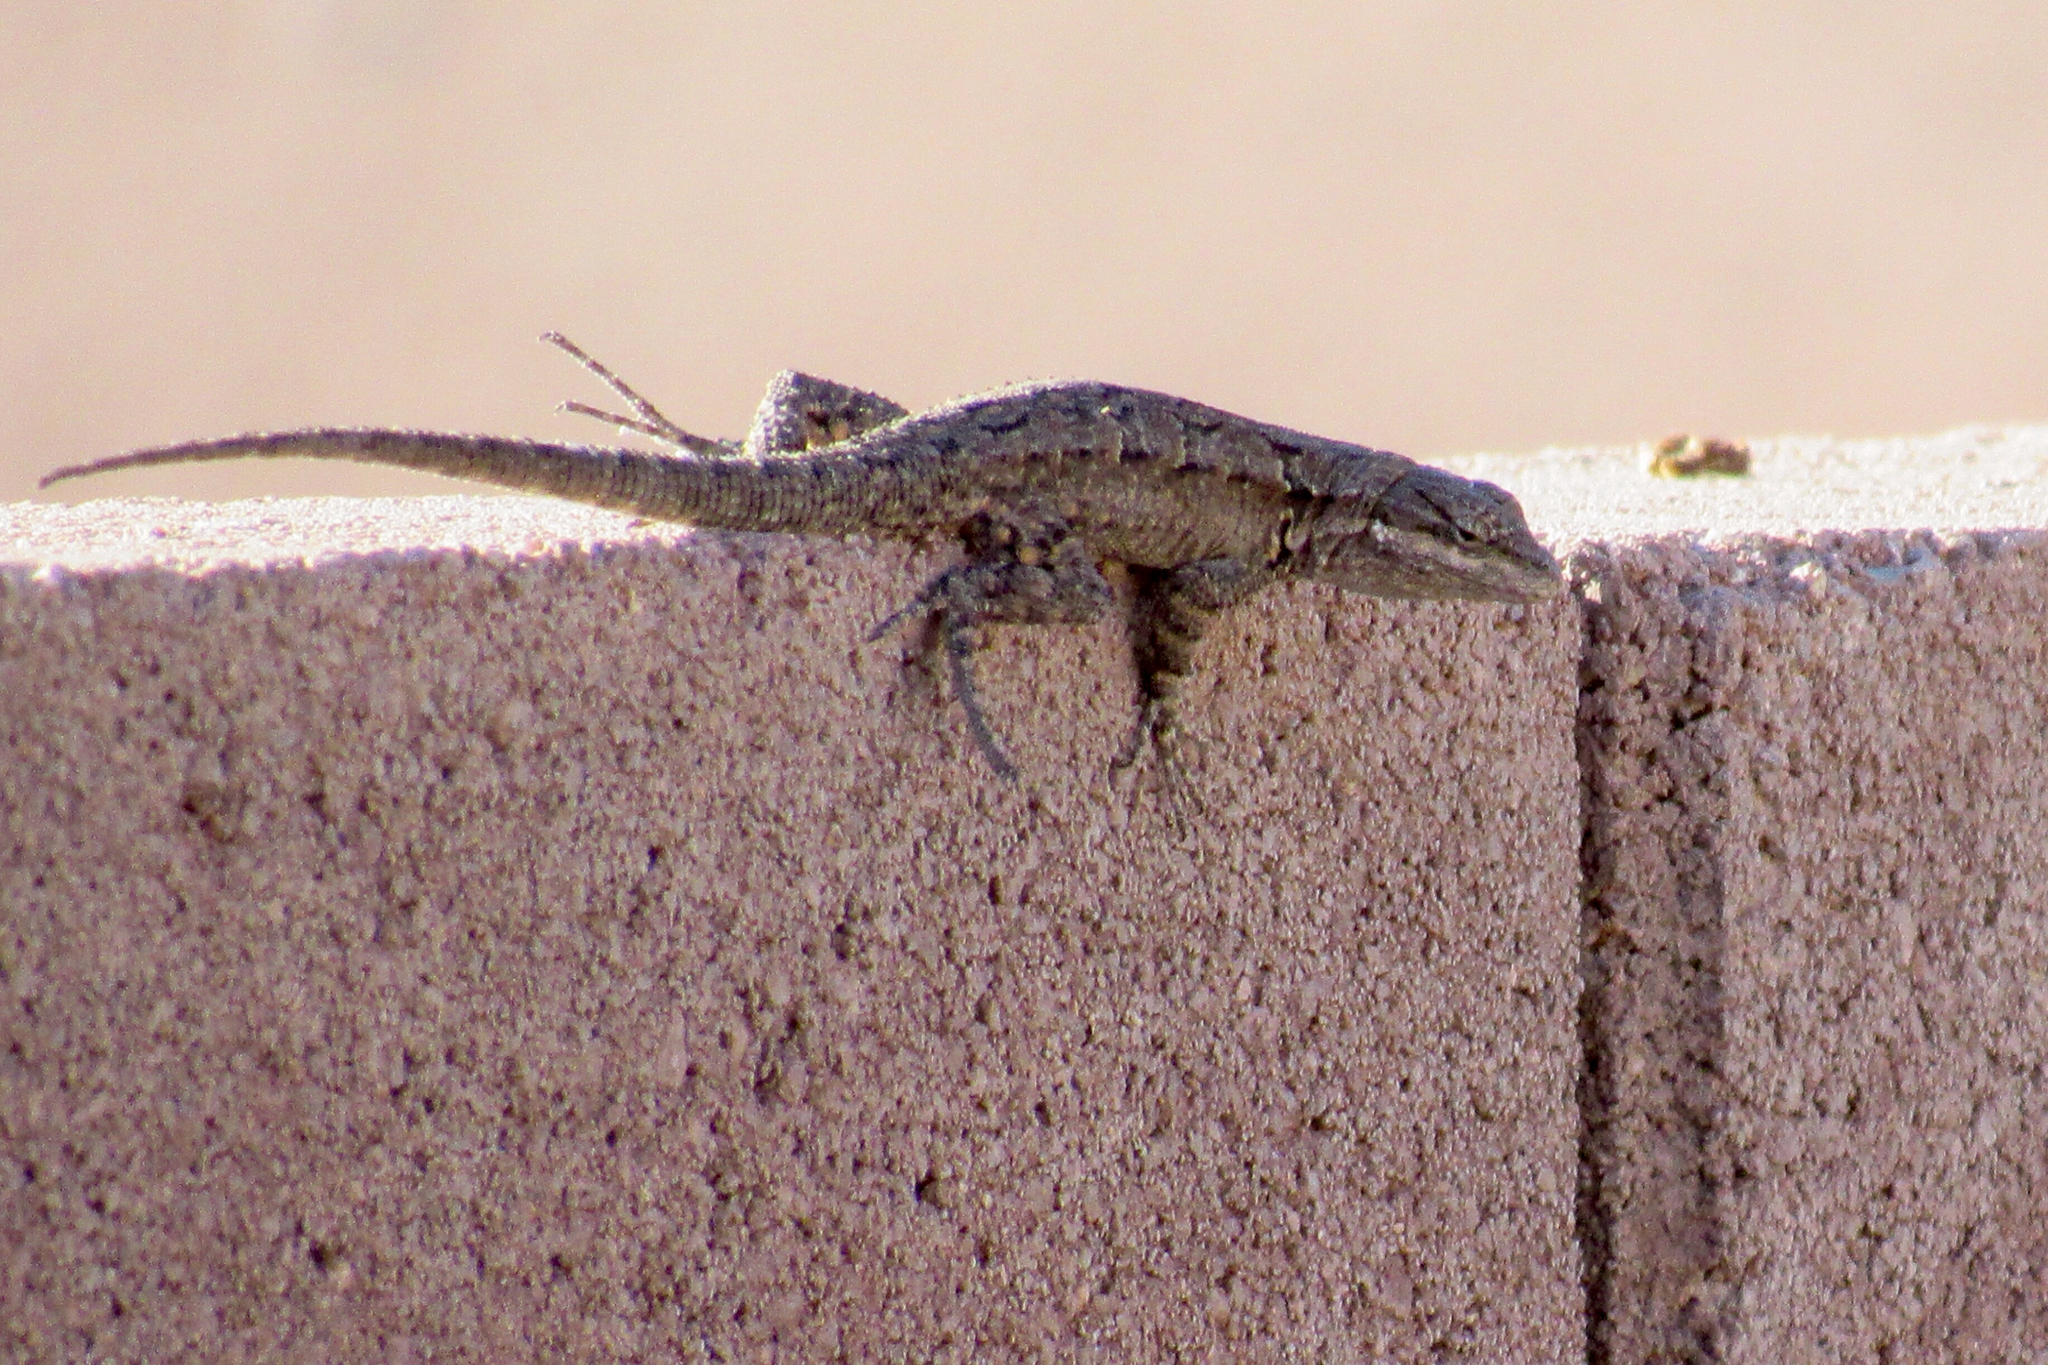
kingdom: Animalia
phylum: Chordata
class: Squamata
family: Phrynosomatidae
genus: Urosaurus
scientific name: Urosaurus ornatus
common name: Ornate tree lizard
